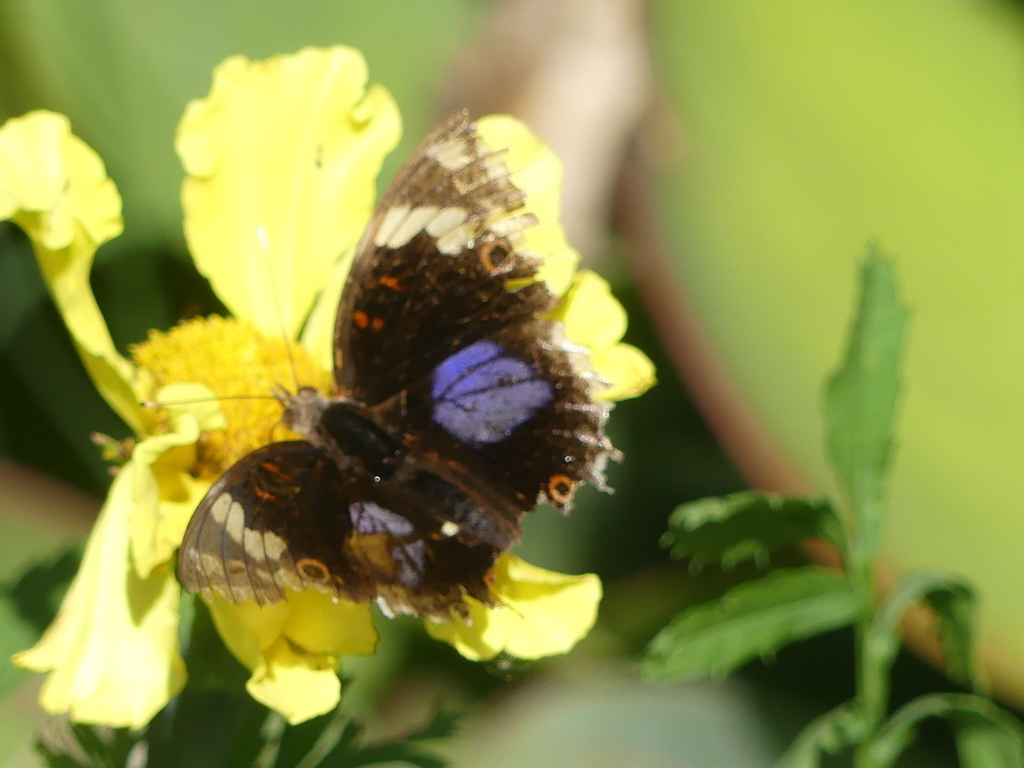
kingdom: Animalia
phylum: Arthropoda
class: Insecta
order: Lepidoptera
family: Nymphalidae
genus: Junonia
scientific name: Junonia oenone
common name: Dark blue pansy
